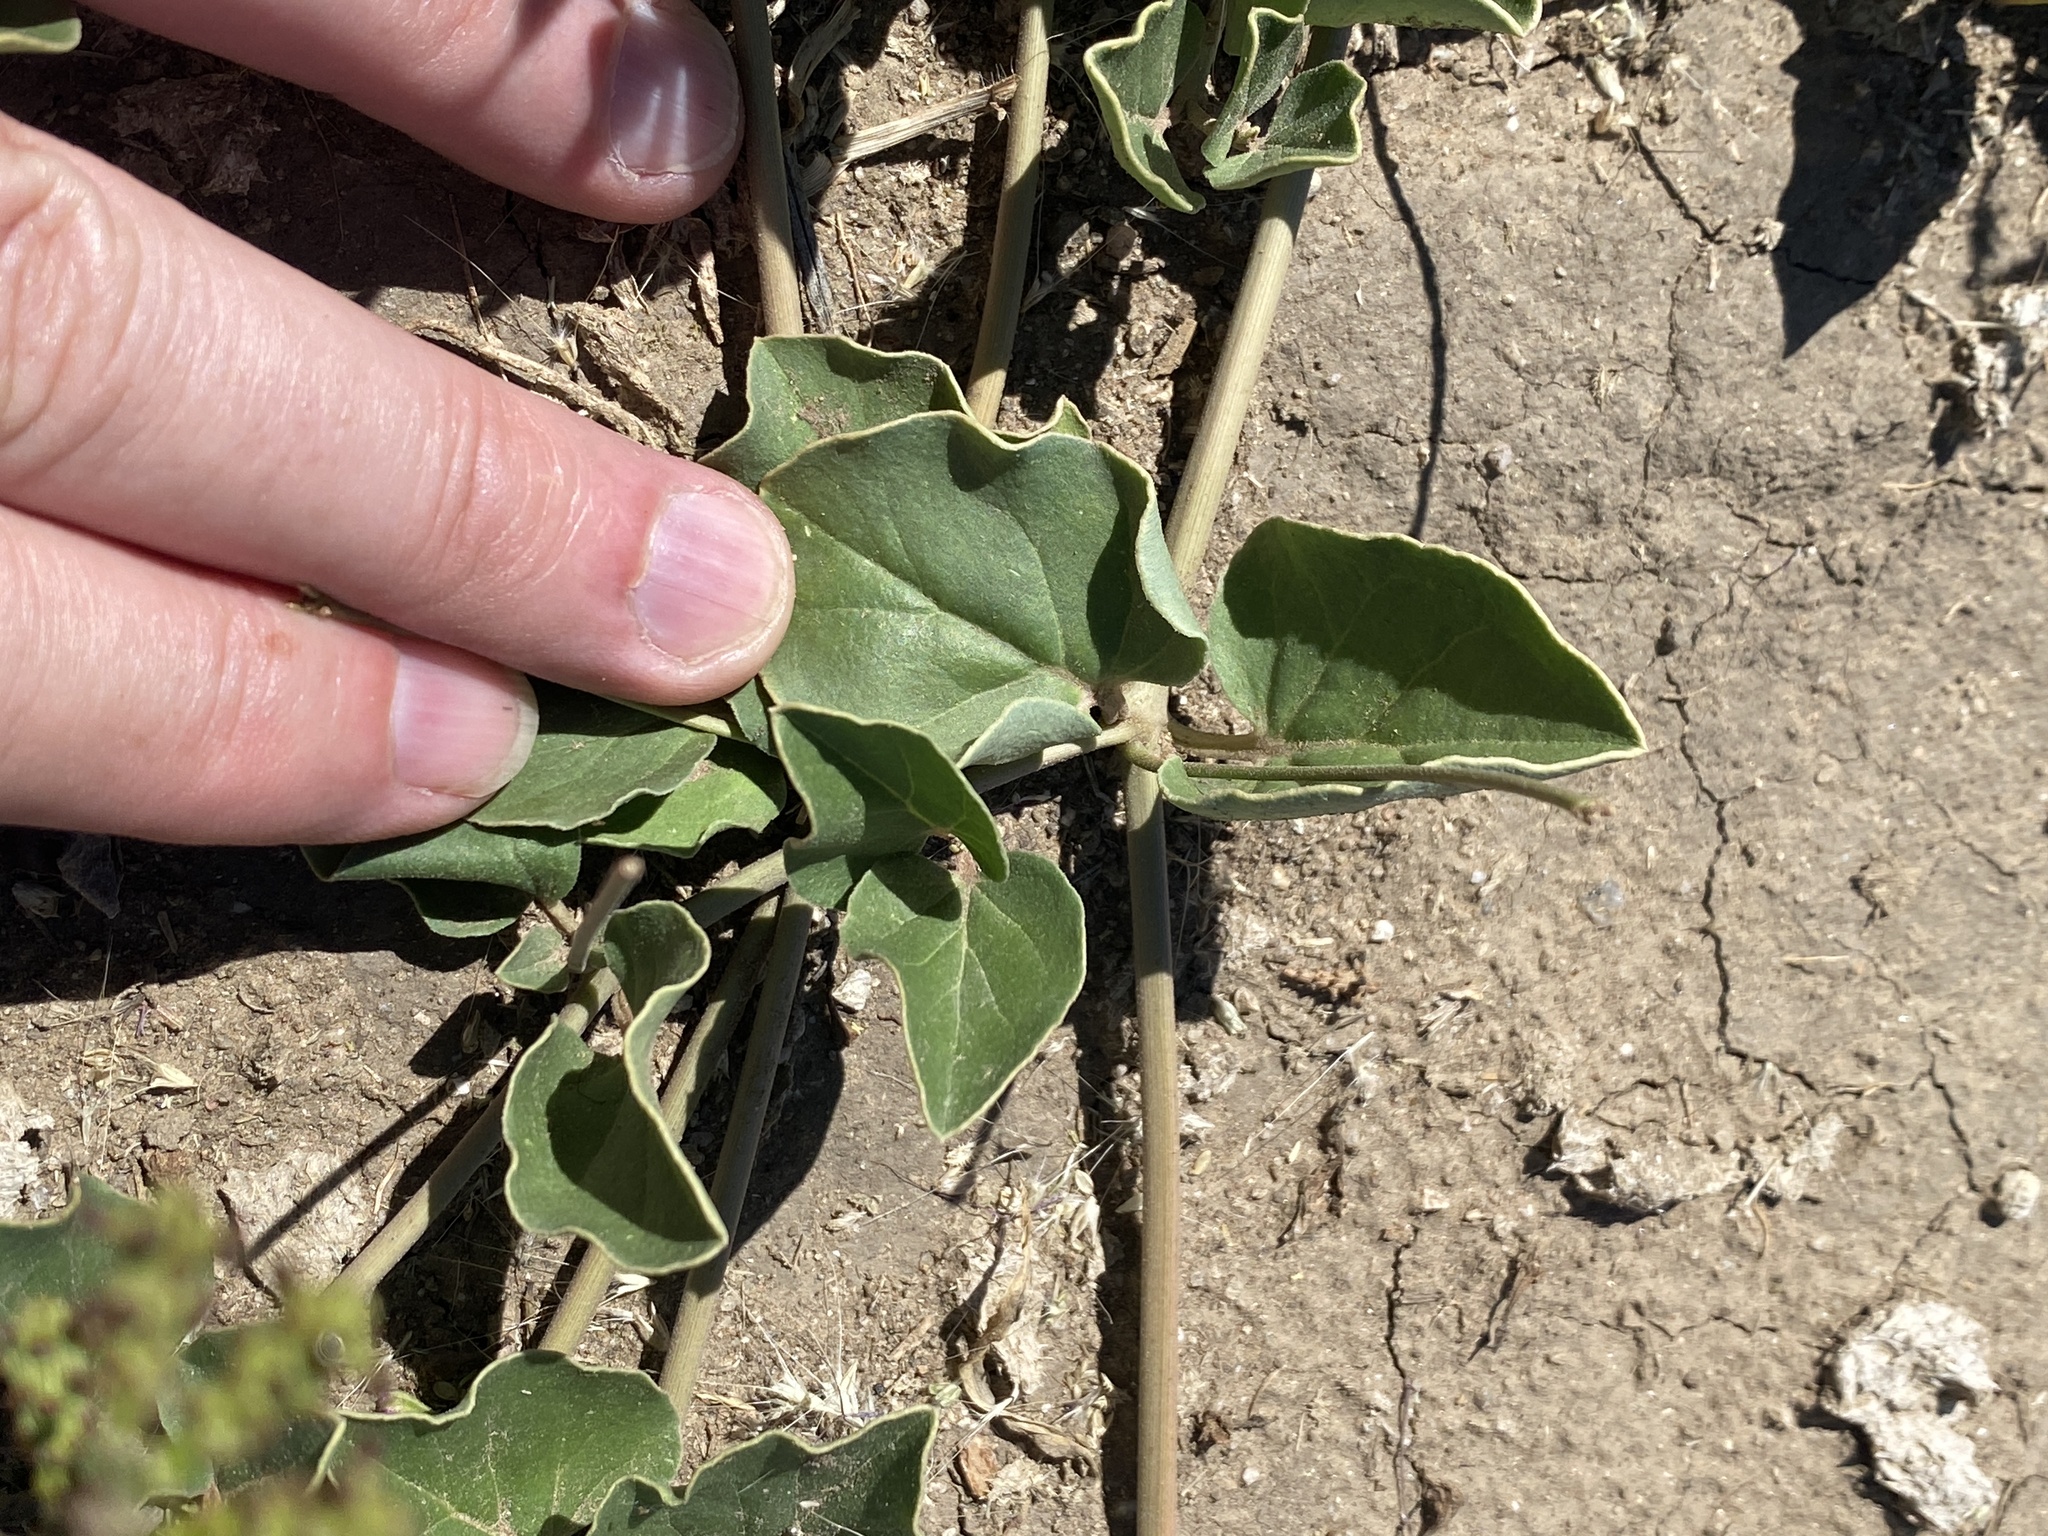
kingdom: Plantae
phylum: Tracheophyta
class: Magnoliopsida
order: Caryophyllales
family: Nyctaginaceae
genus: Commicarpus
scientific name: Commicarpus pentandrus
